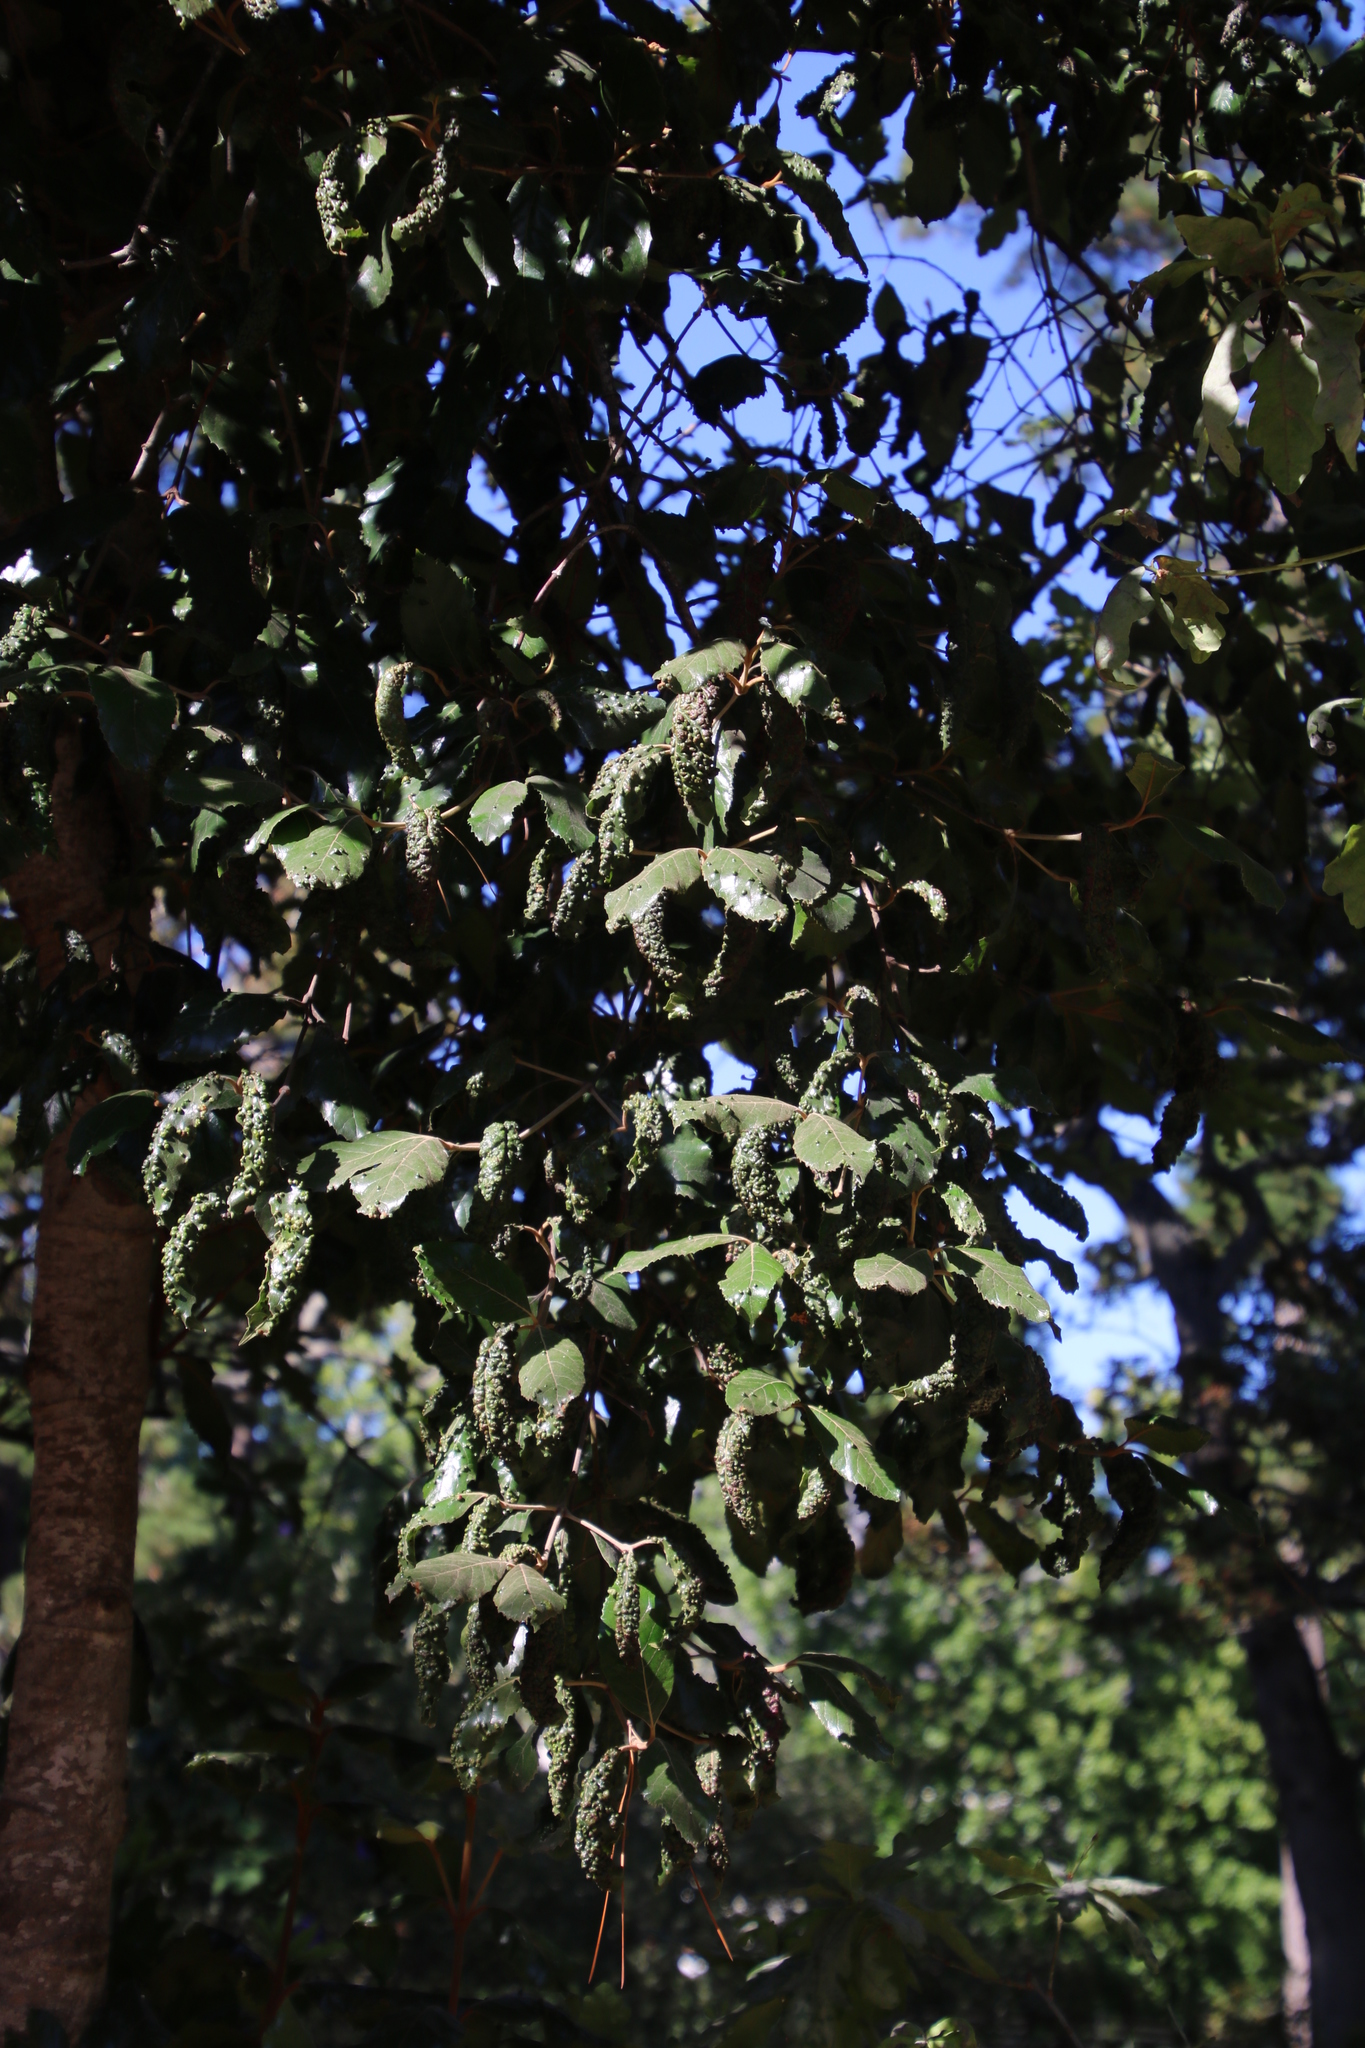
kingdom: Plantae
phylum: Tracheophyta
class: Magnoliopsida
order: Cornales
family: Curtisiaceae
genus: Curtisia
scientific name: Curtisia dentata
